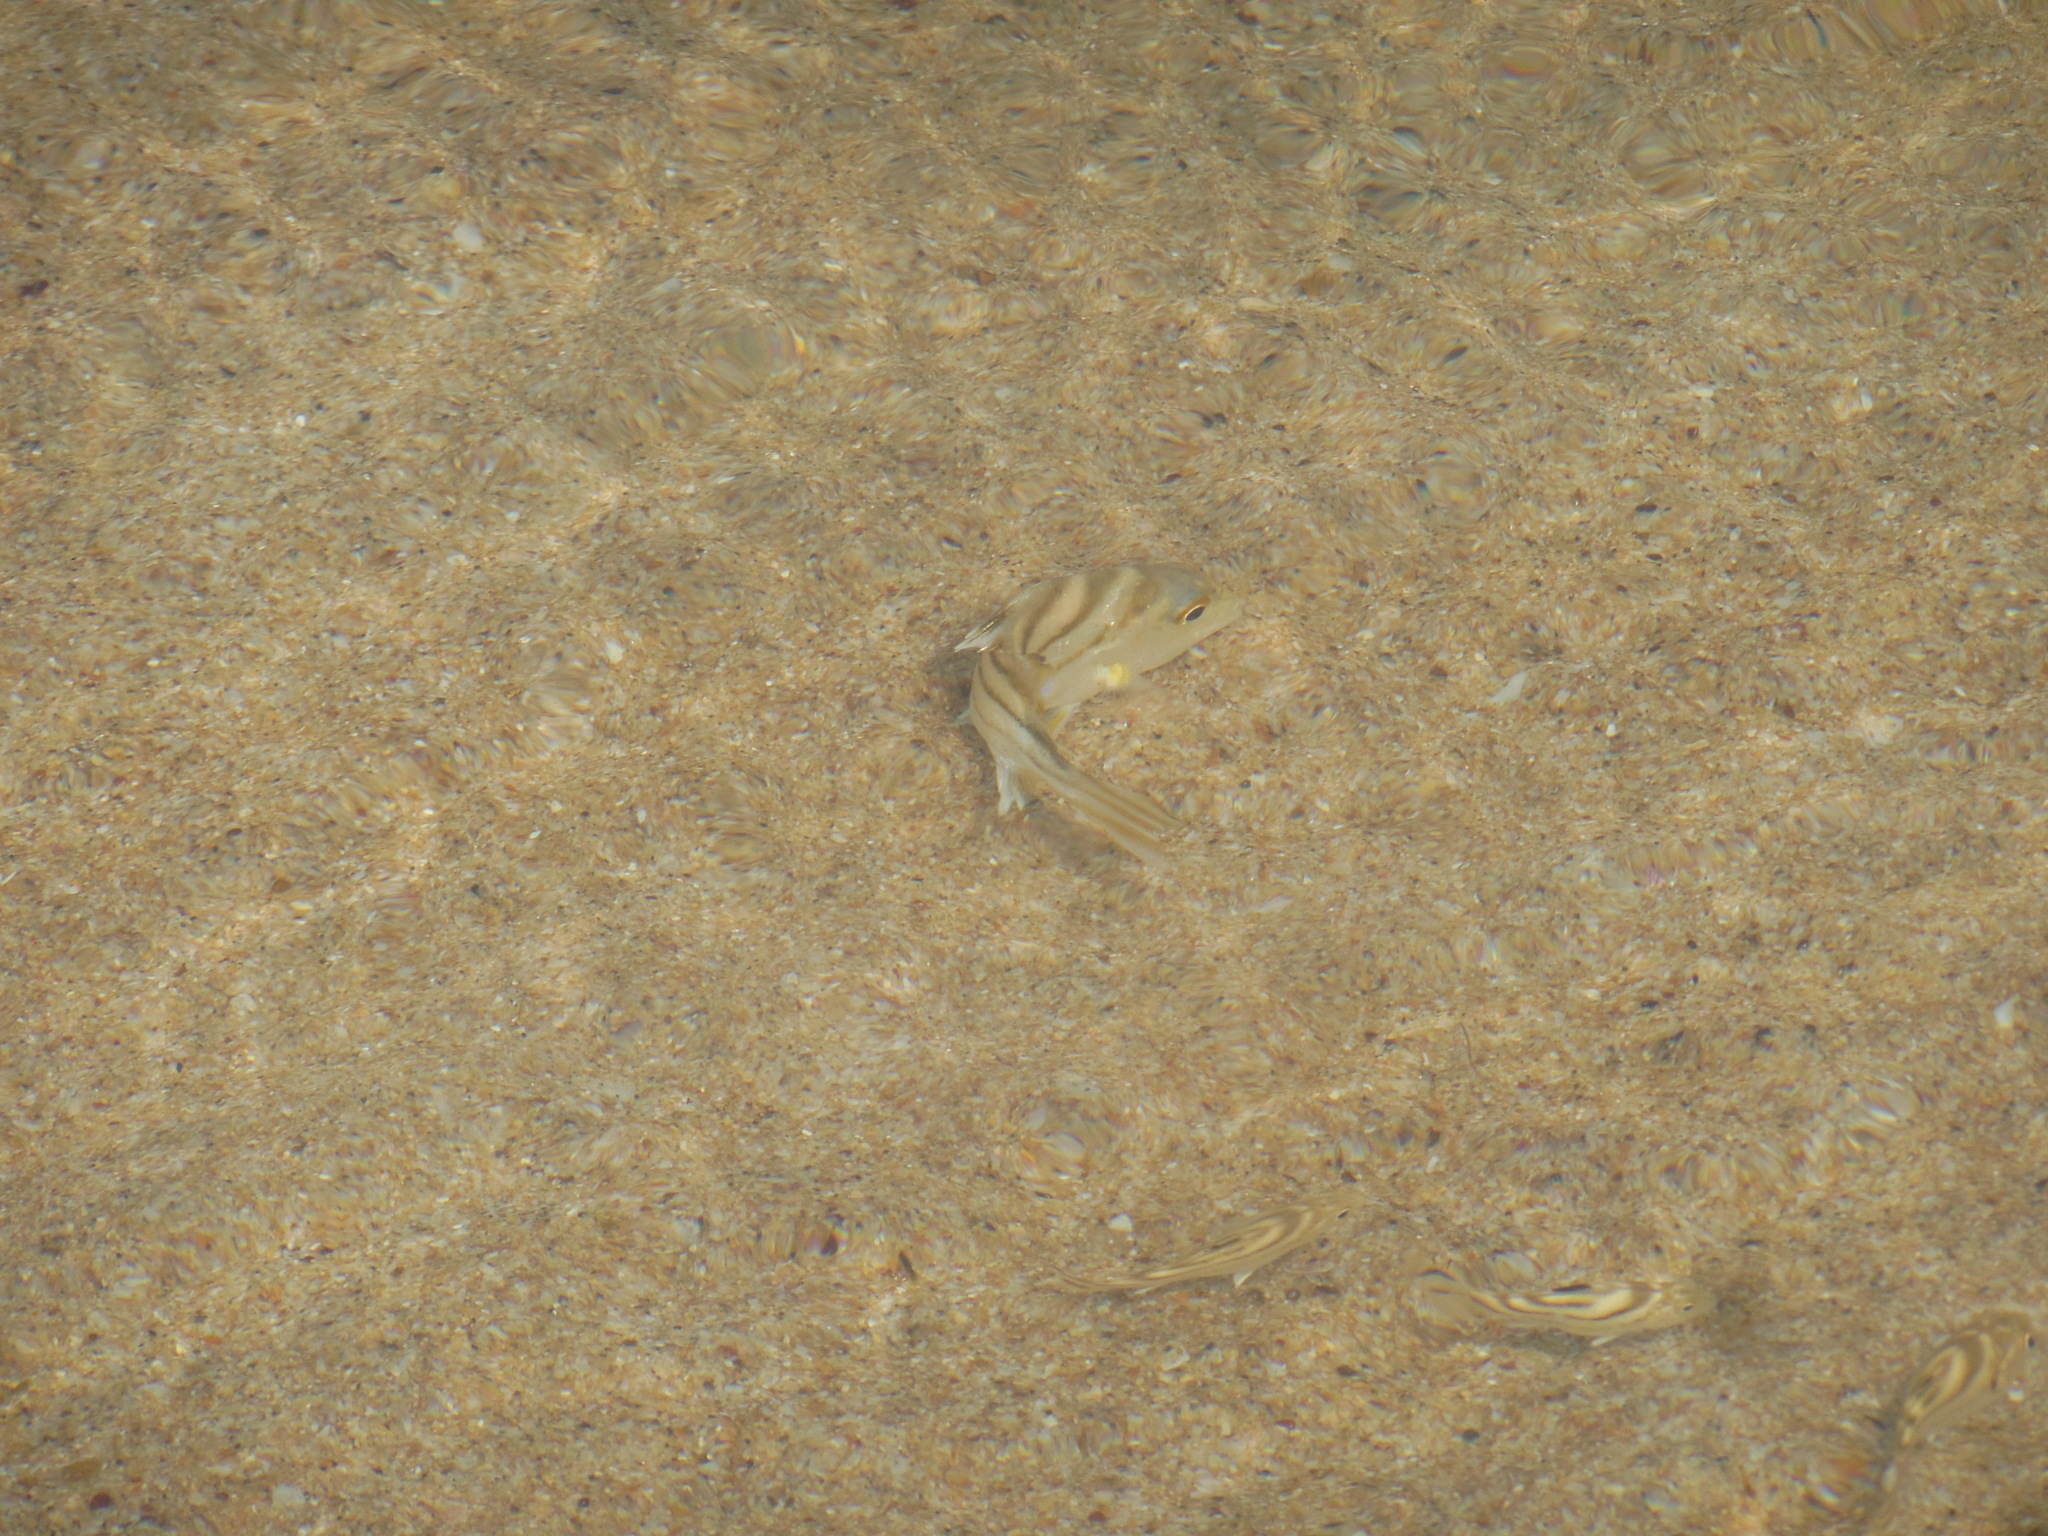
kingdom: Animalia
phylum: Chordata
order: Perciformes
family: Terapontidae
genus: Terapon
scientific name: Terapon jarbua
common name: Jarbua terapon
